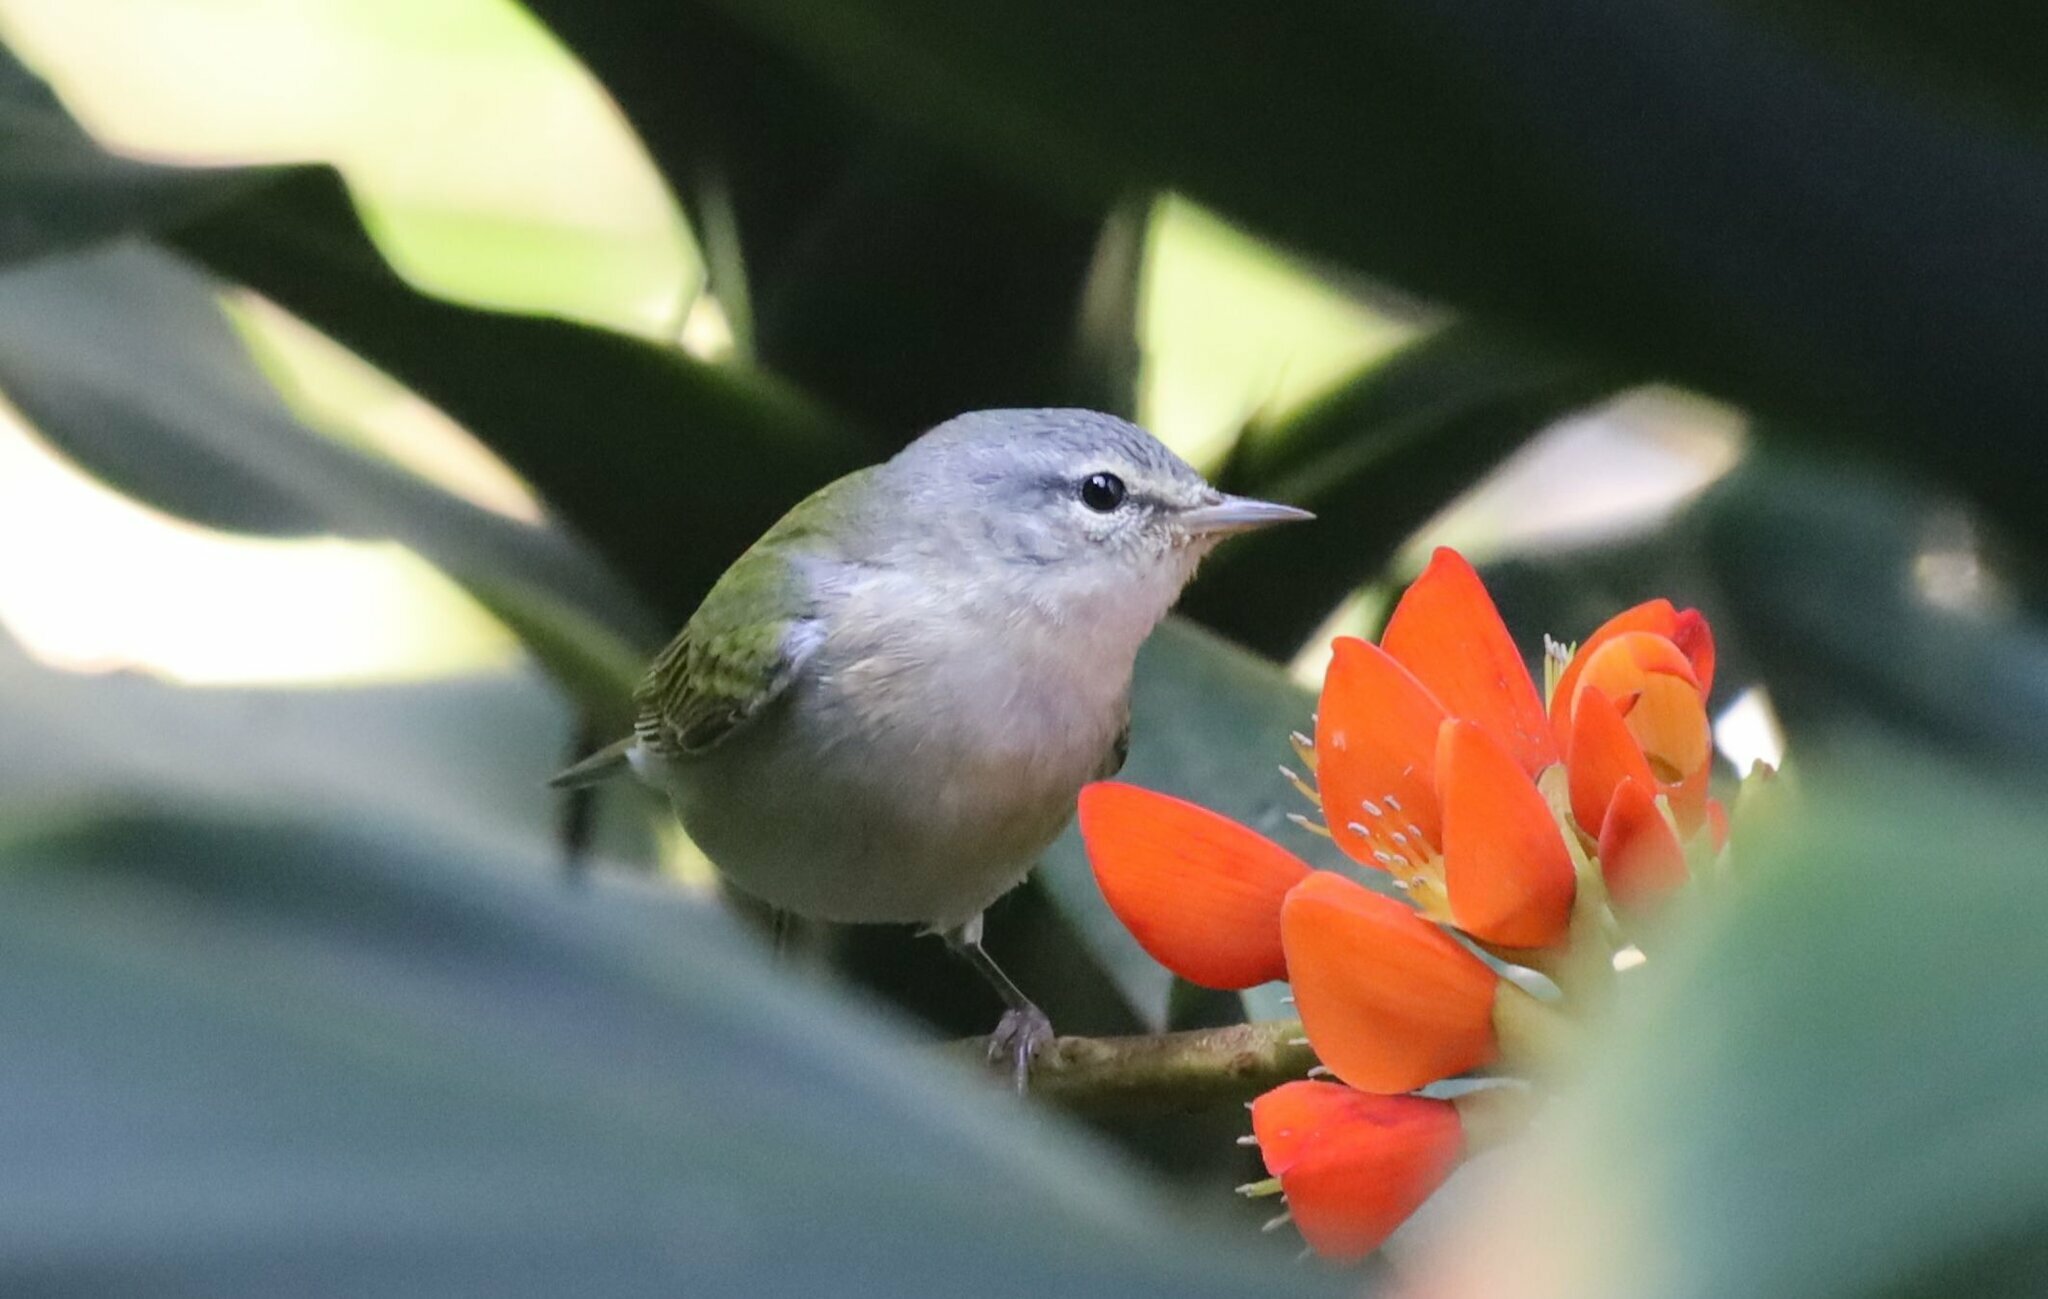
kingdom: Animalia
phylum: Chordata
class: Aves
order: Passeriformes
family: Parulidae
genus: Leiothlypis
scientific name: Leiothlypis peregrina
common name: Tennessee warbler
